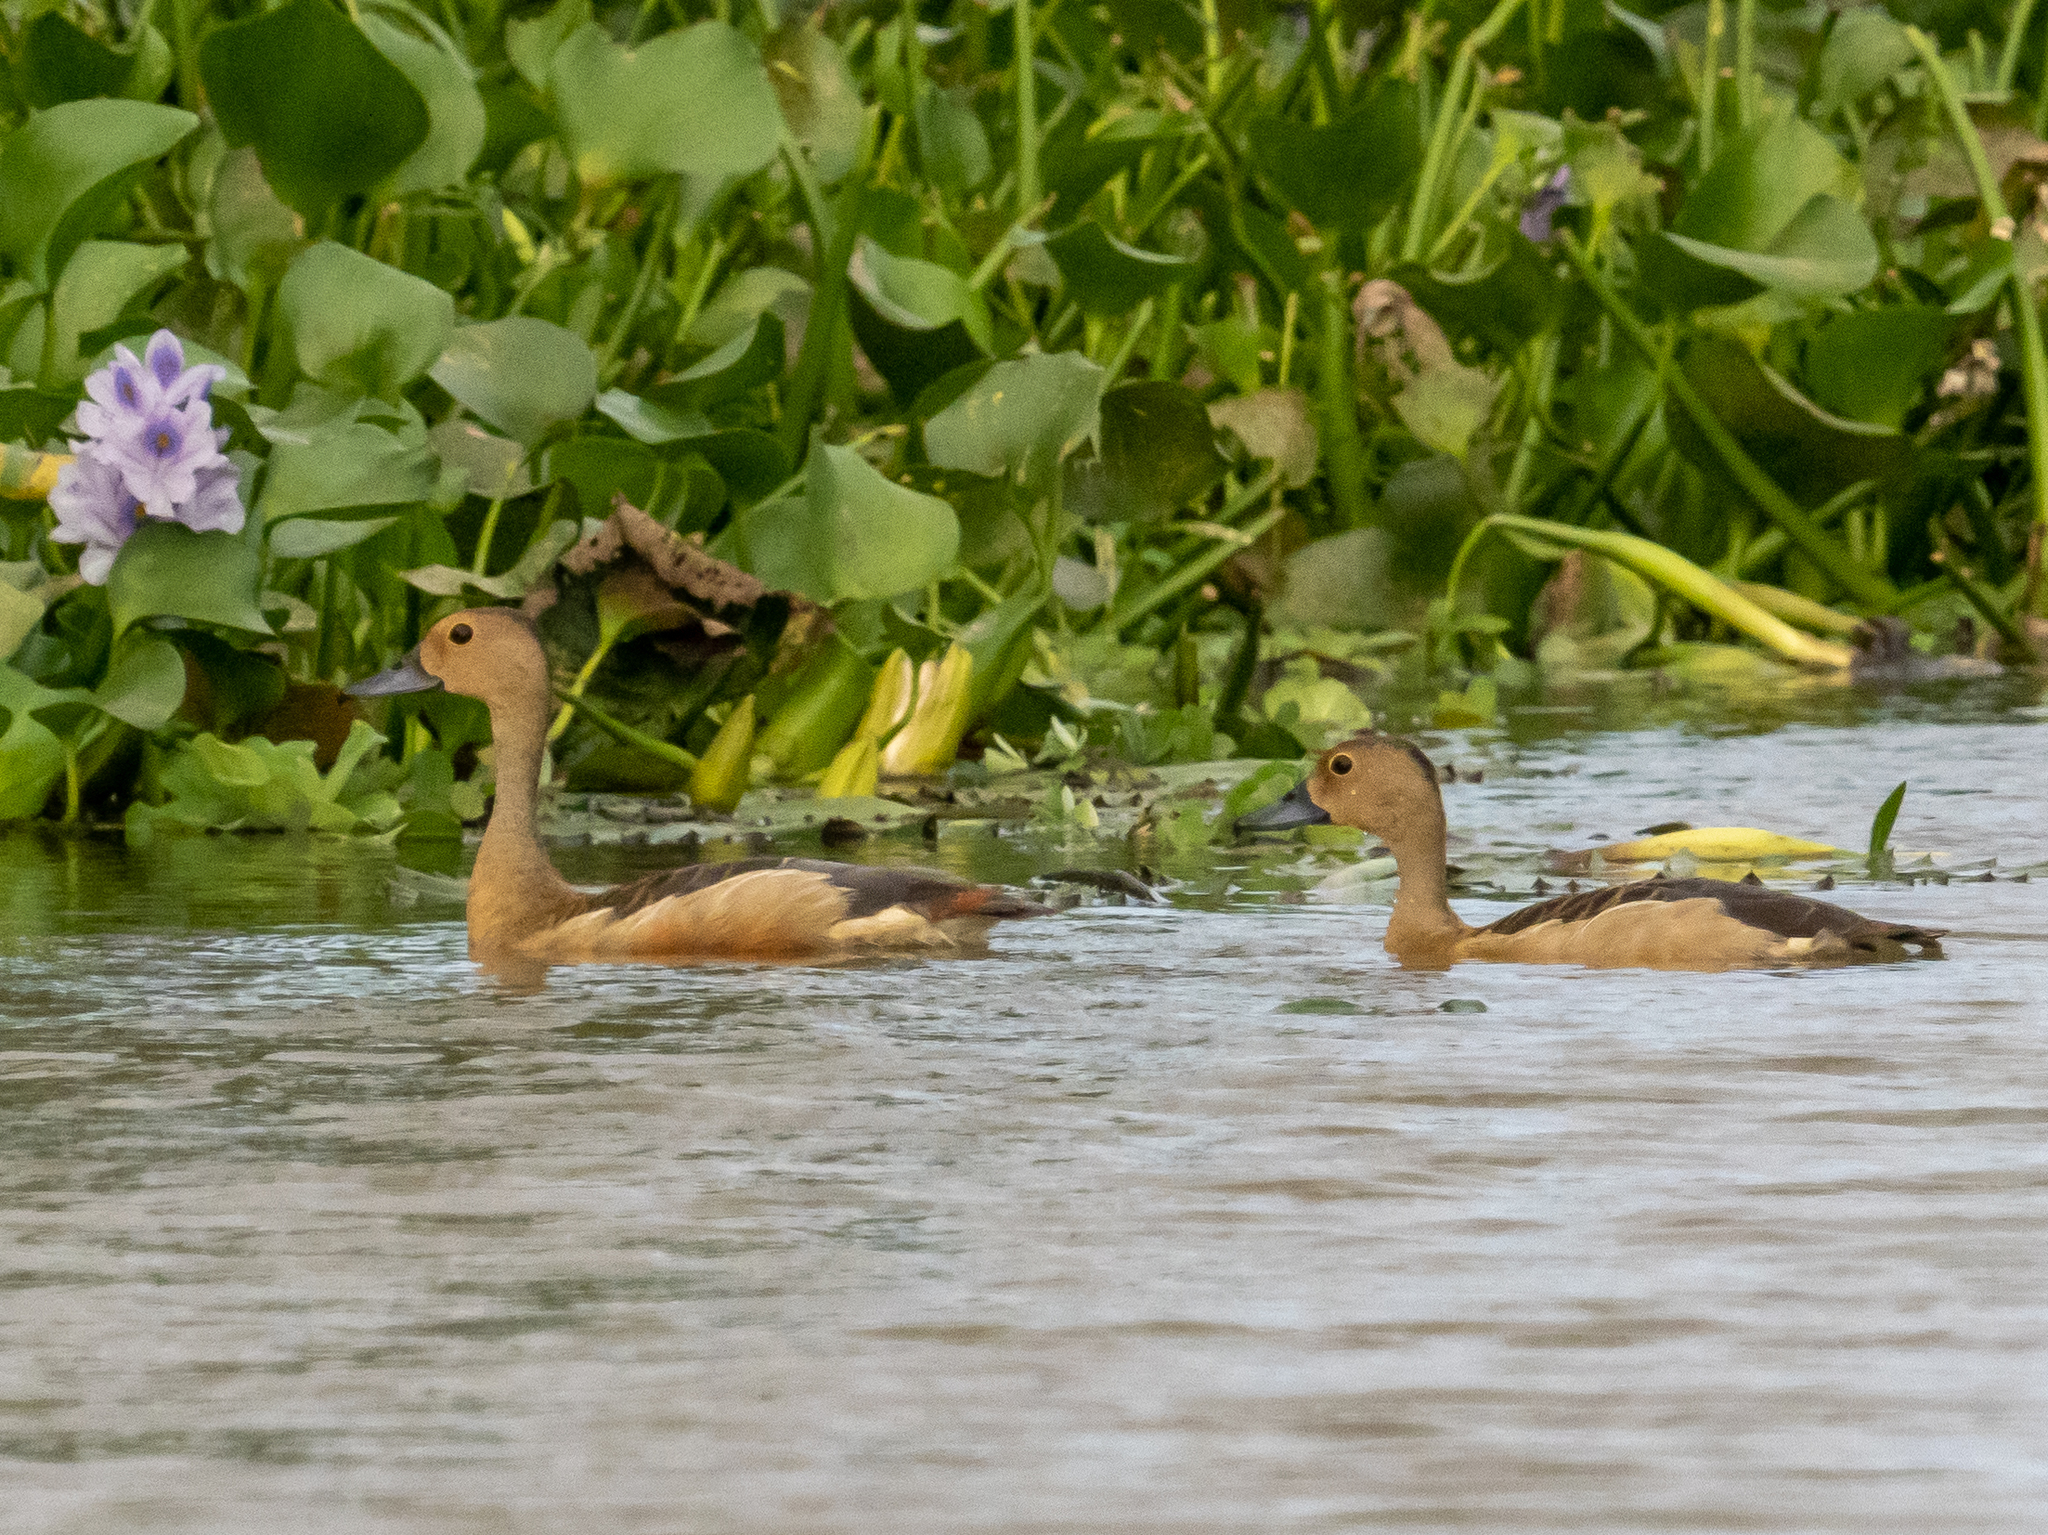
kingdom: Animalia
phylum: Chordata
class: Aves
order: Anseriformes
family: Anatidae
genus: Dendrocygna
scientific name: Dendrocygna javanica
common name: Lesser whistling-duck
